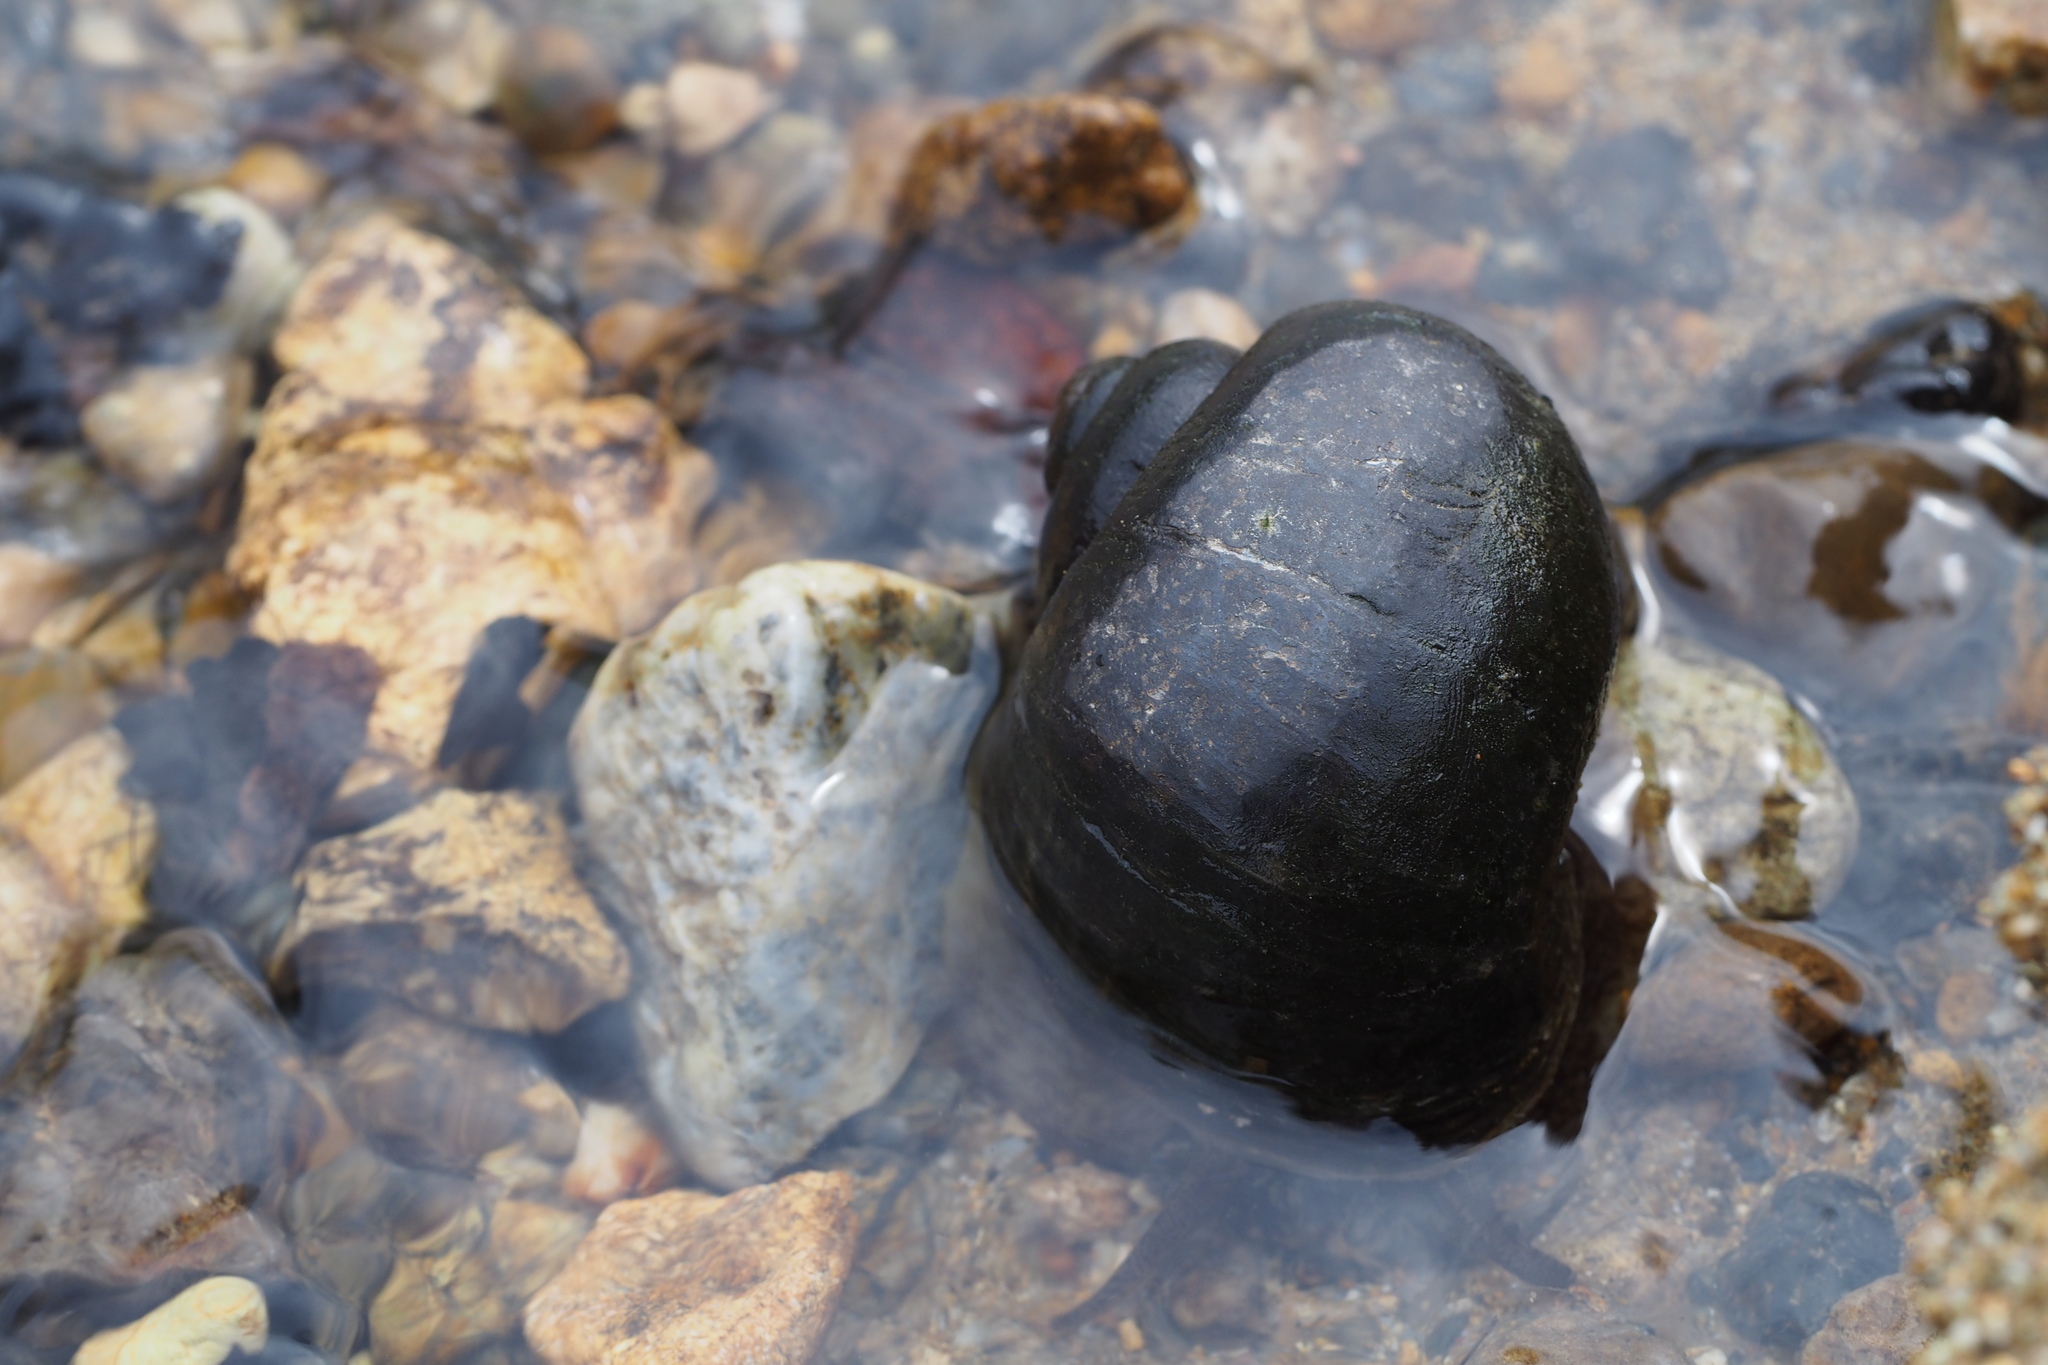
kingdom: Animalia
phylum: Mollusca
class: Gastropoda
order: Architaenioglossa
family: Ampullariidae
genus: Pomacea
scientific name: Pomacea canaliculata
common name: Channeled applesnail
